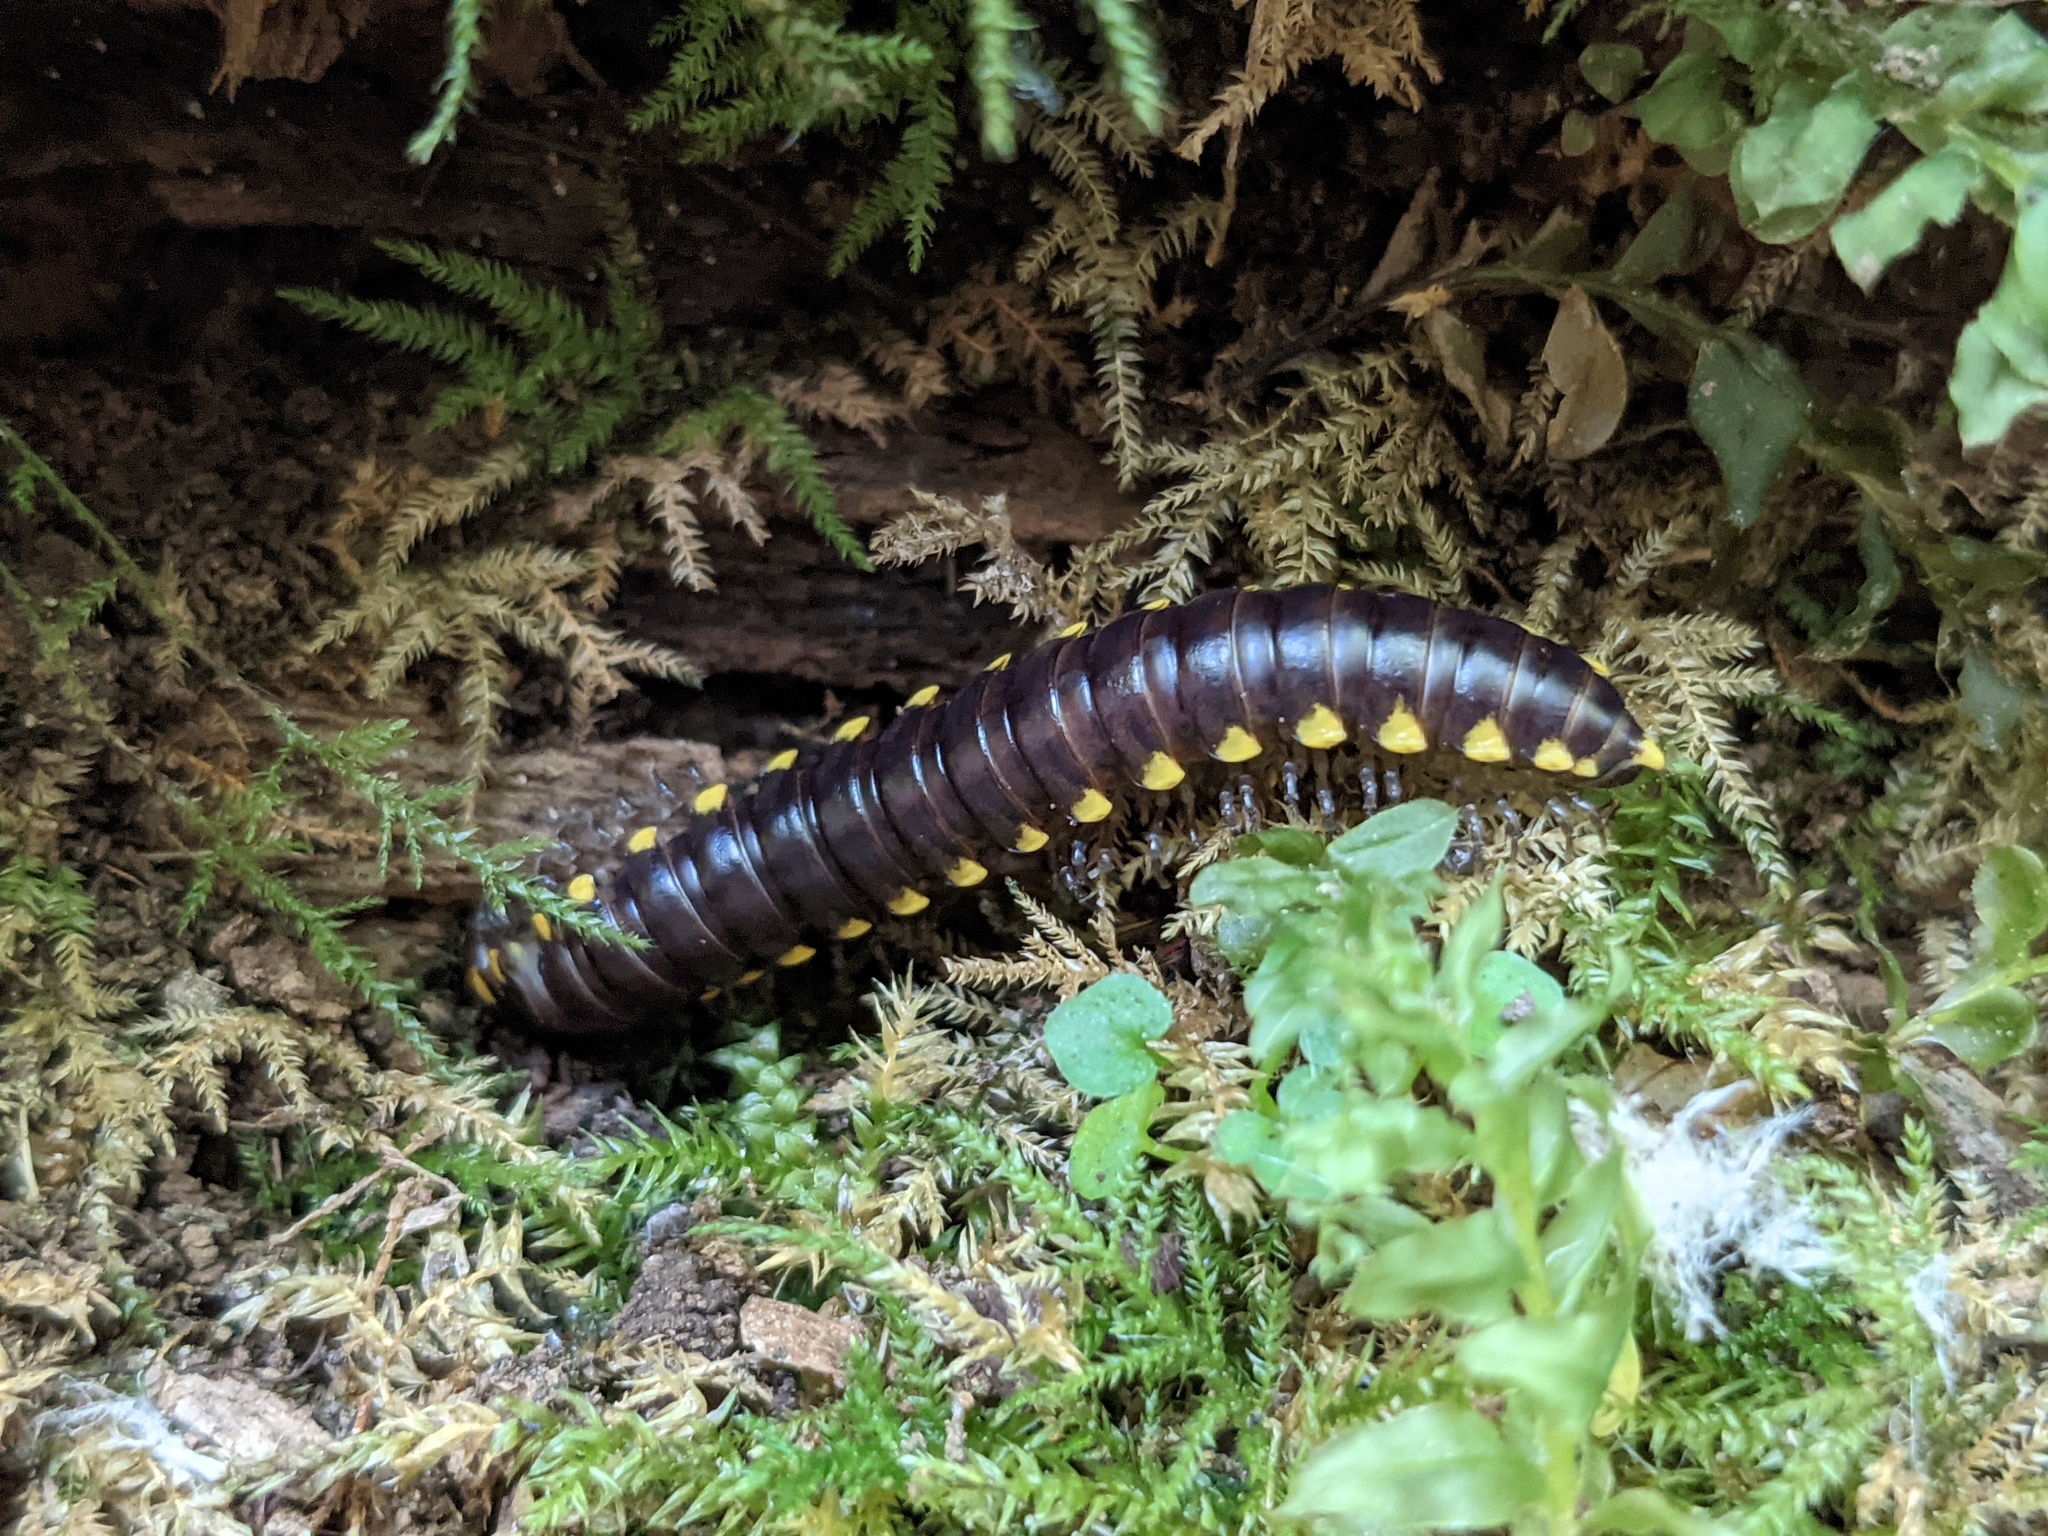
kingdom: Animalia
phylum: Arthropoda
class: Diplopoda
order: Polydesmida
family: Xystodesmidae
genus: Harpaphe
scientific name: Harpaphe haydeniana
